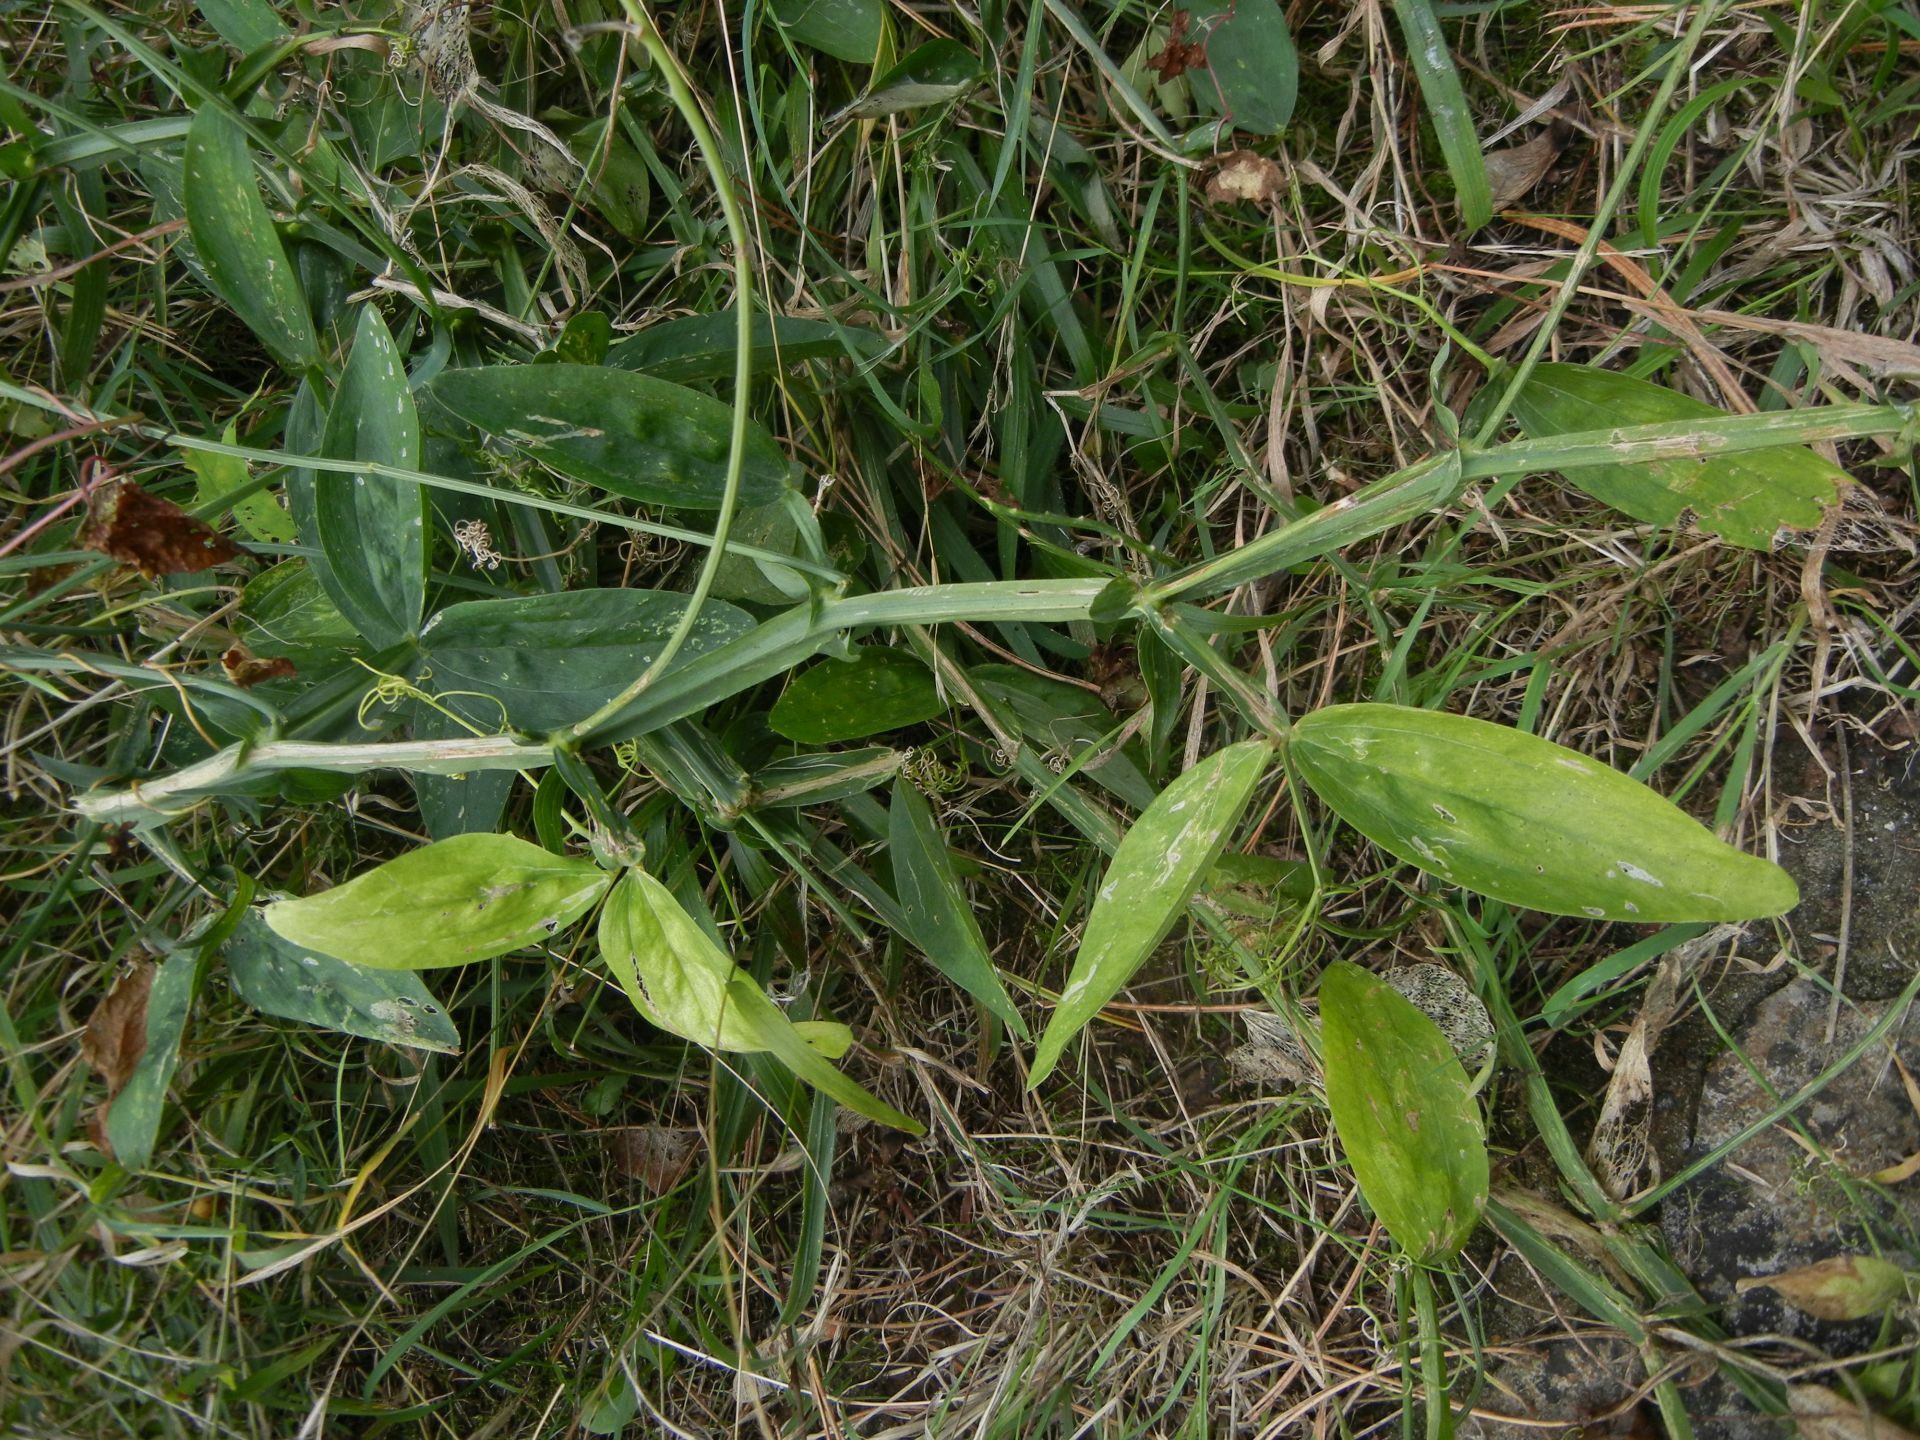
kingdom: Plantae
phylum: Tracheophyta
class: Magnoliopsida
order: Fabales
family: Fabaceae
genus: Lathyrus
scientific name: Lathyrus latifolius
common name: Perennial pea
